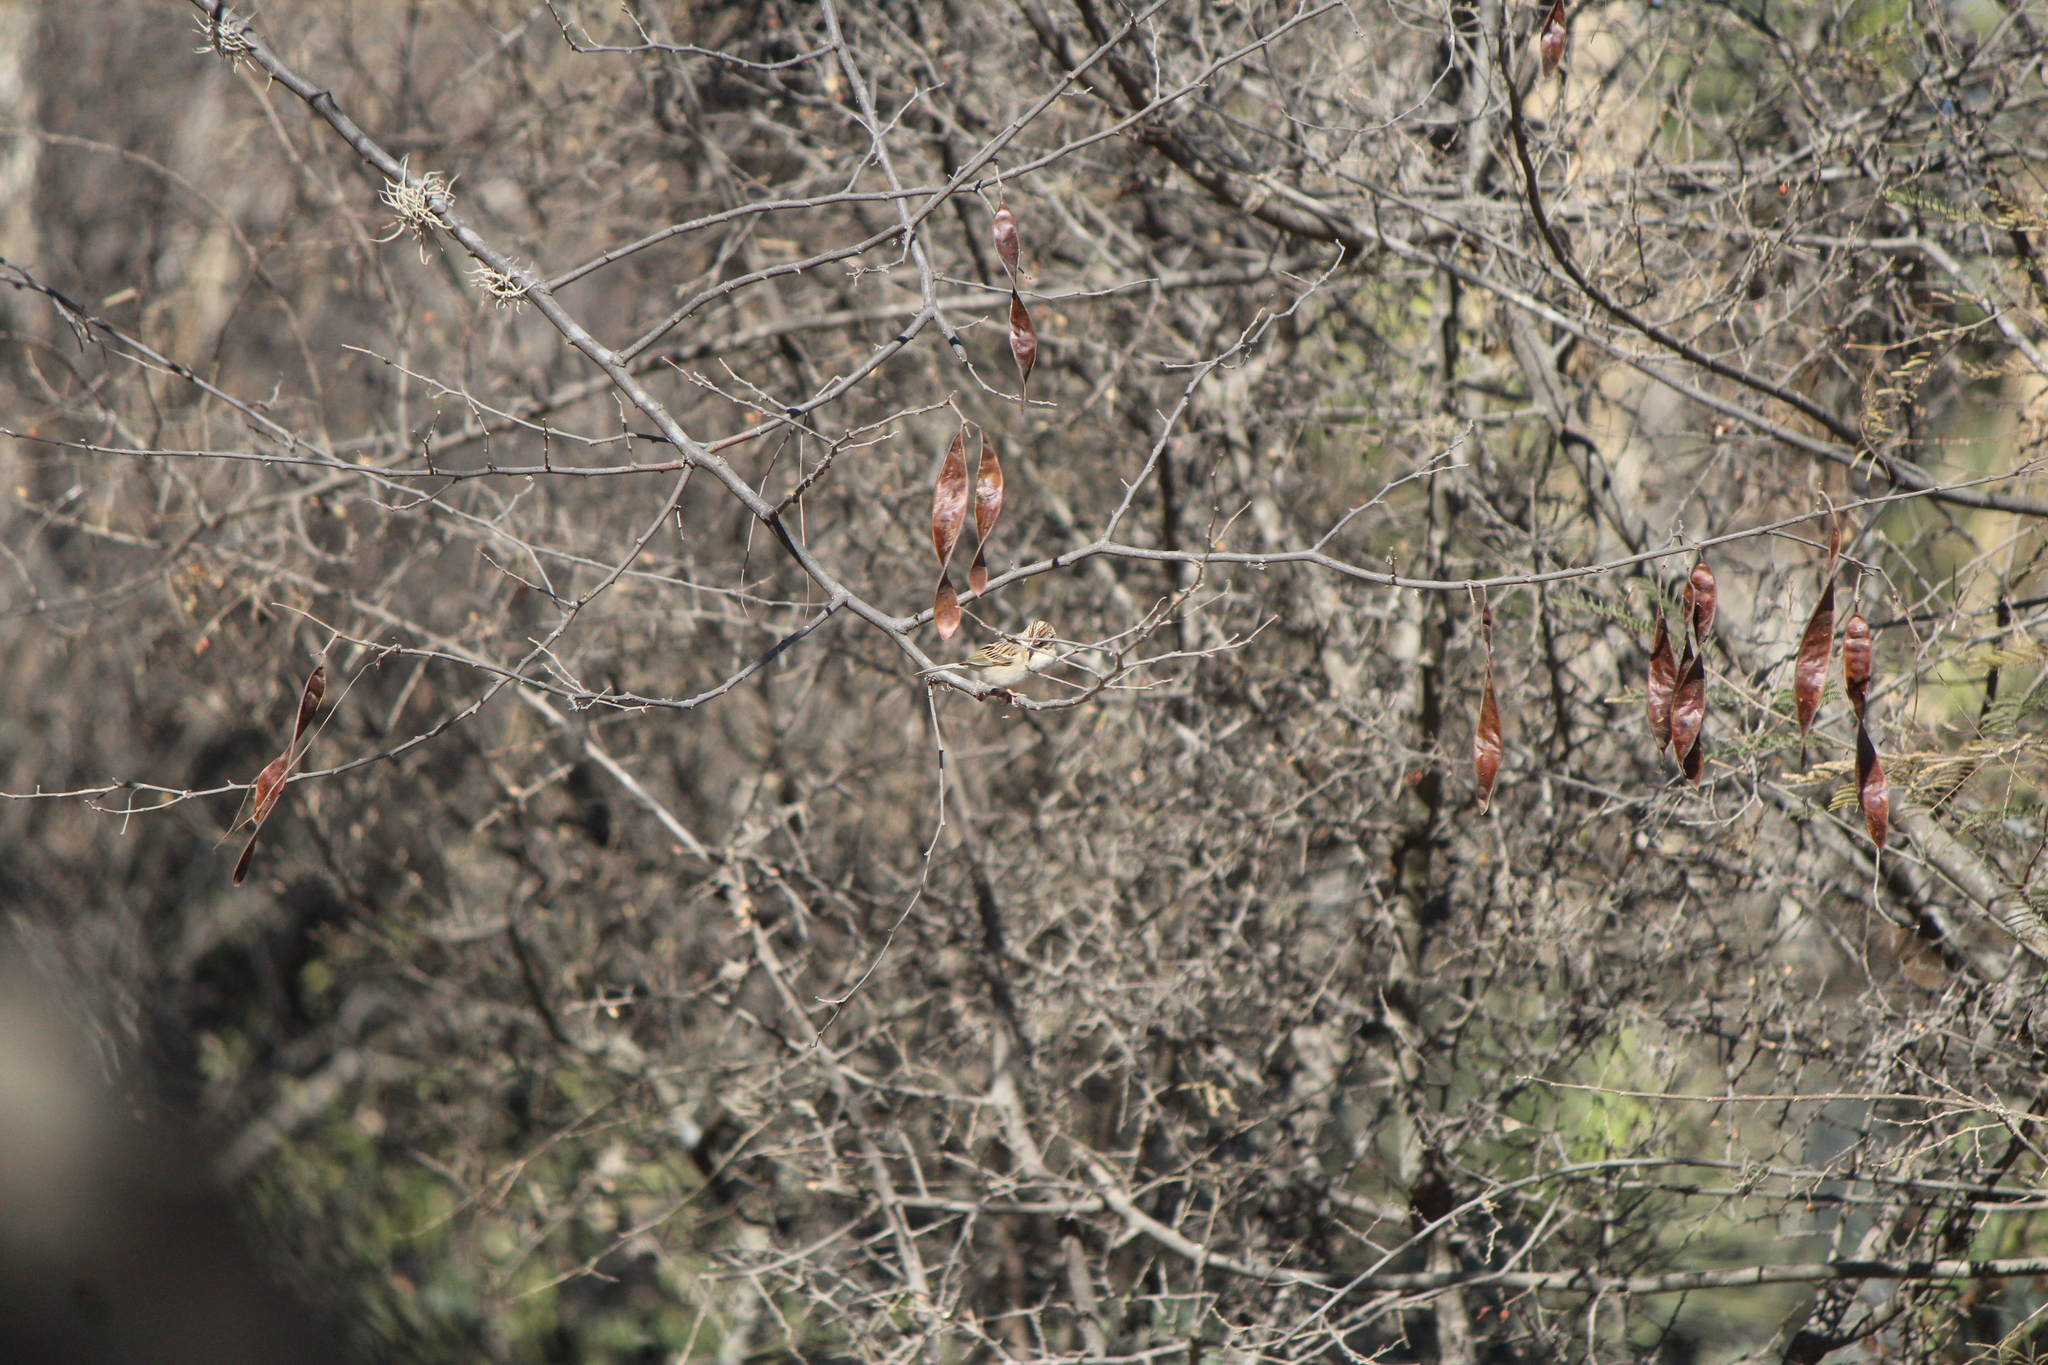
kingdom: Animalia
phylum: Chordata
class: Aves
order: Passeriformes
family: Passerellidae
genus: Spizella
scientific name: Spizella pallida
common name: Clay-colored sparrow
